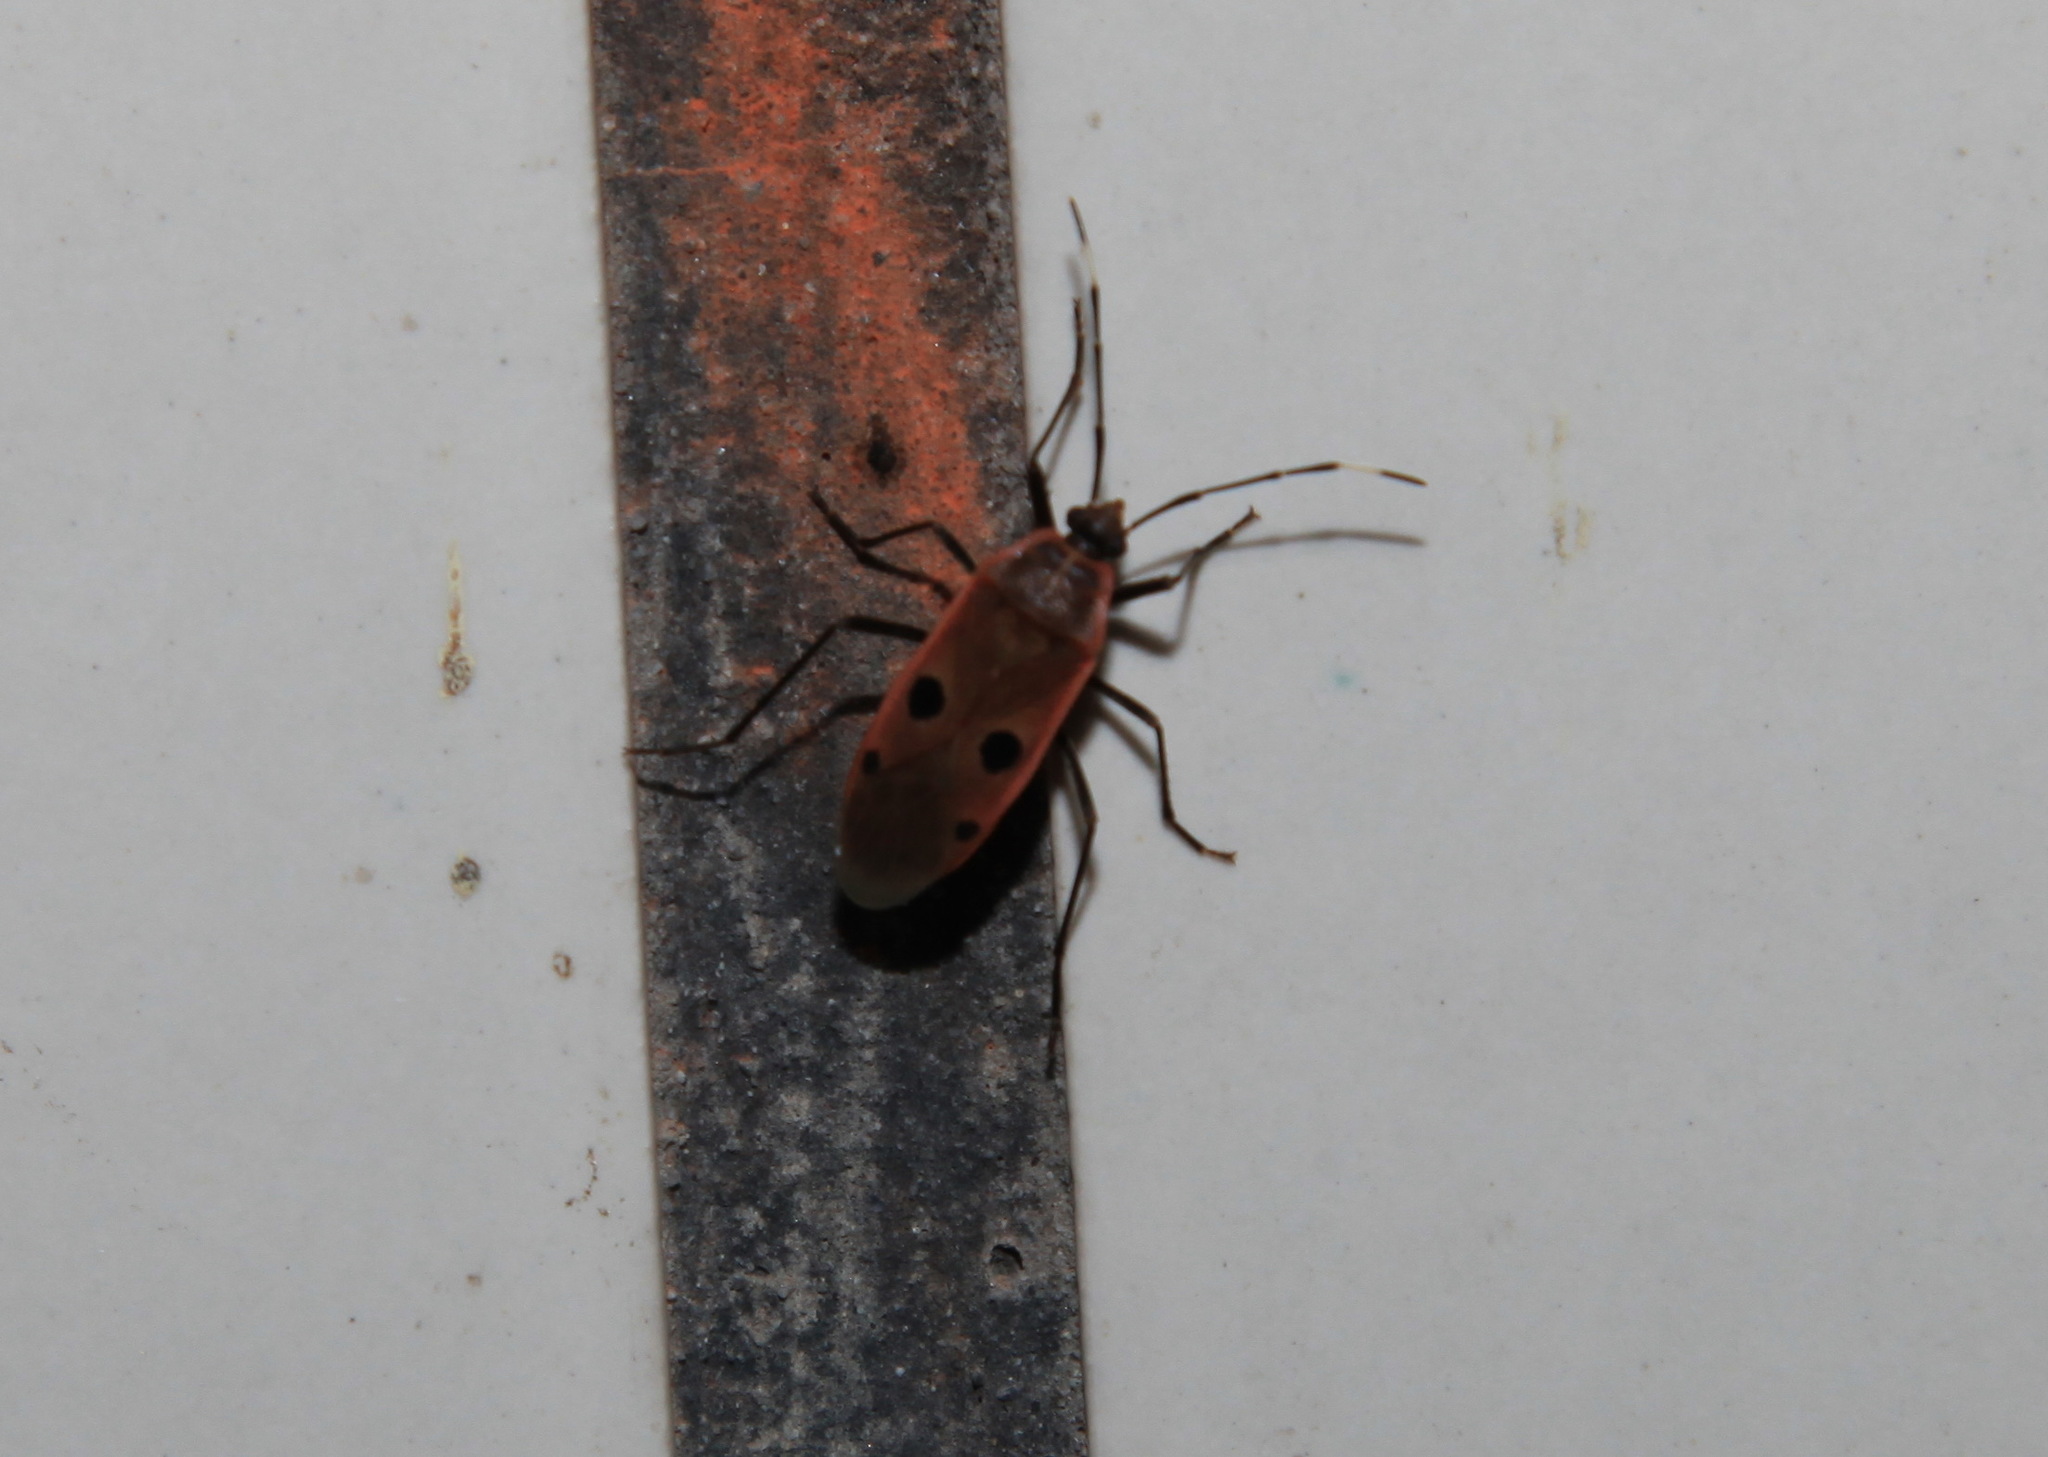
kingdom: Animalia
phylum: Arthropoda
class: Insecta
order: Hemiptera
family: Largidae
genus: Physopelta
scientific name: Physopelta quadriguttata
